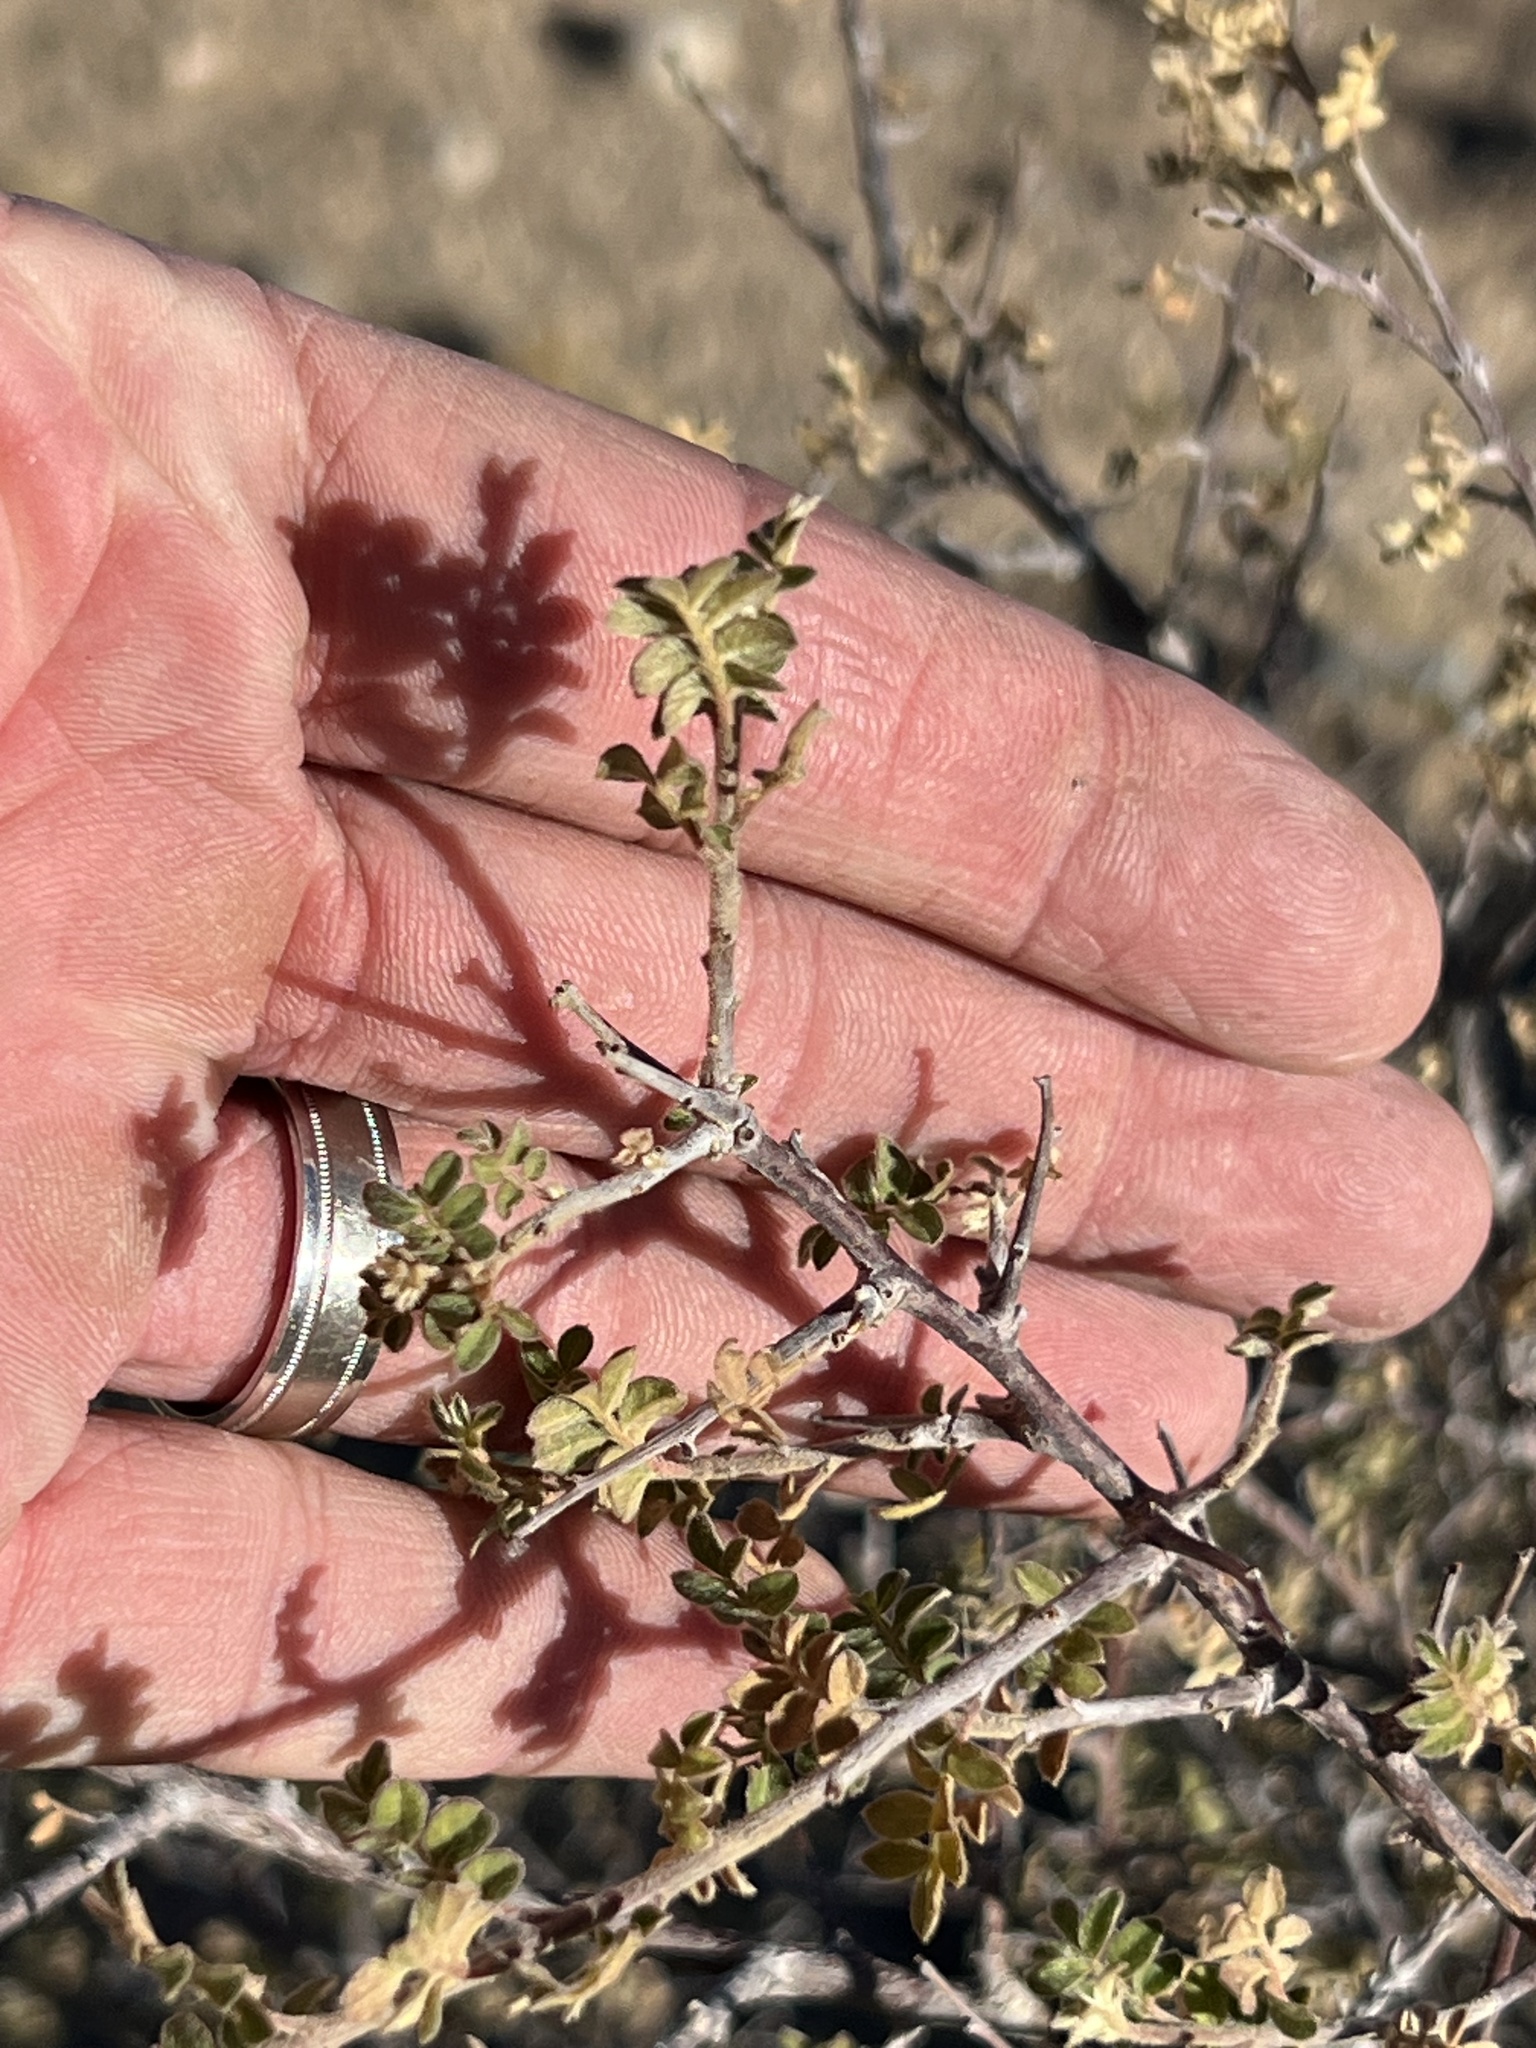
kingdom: Plantae
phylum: Tracheophyta
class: Magnoliopsida
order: Sapindales
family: Anacardiaceae
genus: Rhus
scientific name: Rhus microphylla
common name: Desert sumac
